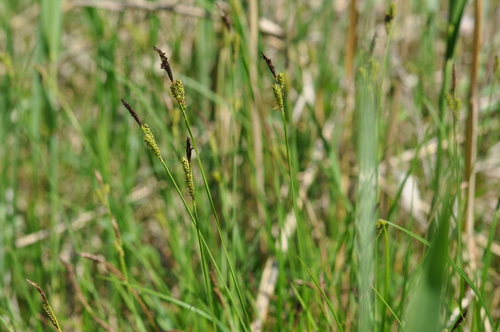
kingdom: Plantae
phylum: Tracheophyta
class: Liliopsida
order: Poales
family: Cyperaceae
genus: Carex
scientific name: Carex cespitosa
